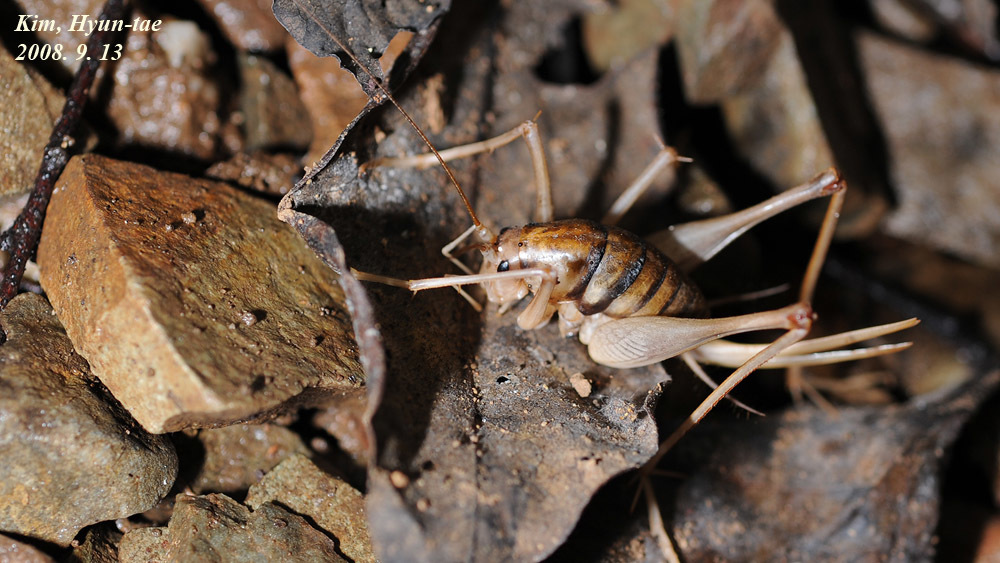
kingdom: Animalia
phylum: Arthropoda
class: Insecta
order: Orthoptera
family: Rhaphidophoridae
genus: Tachycines
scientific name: Tachycines asynamorus
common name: Greenhouse camel cricket
